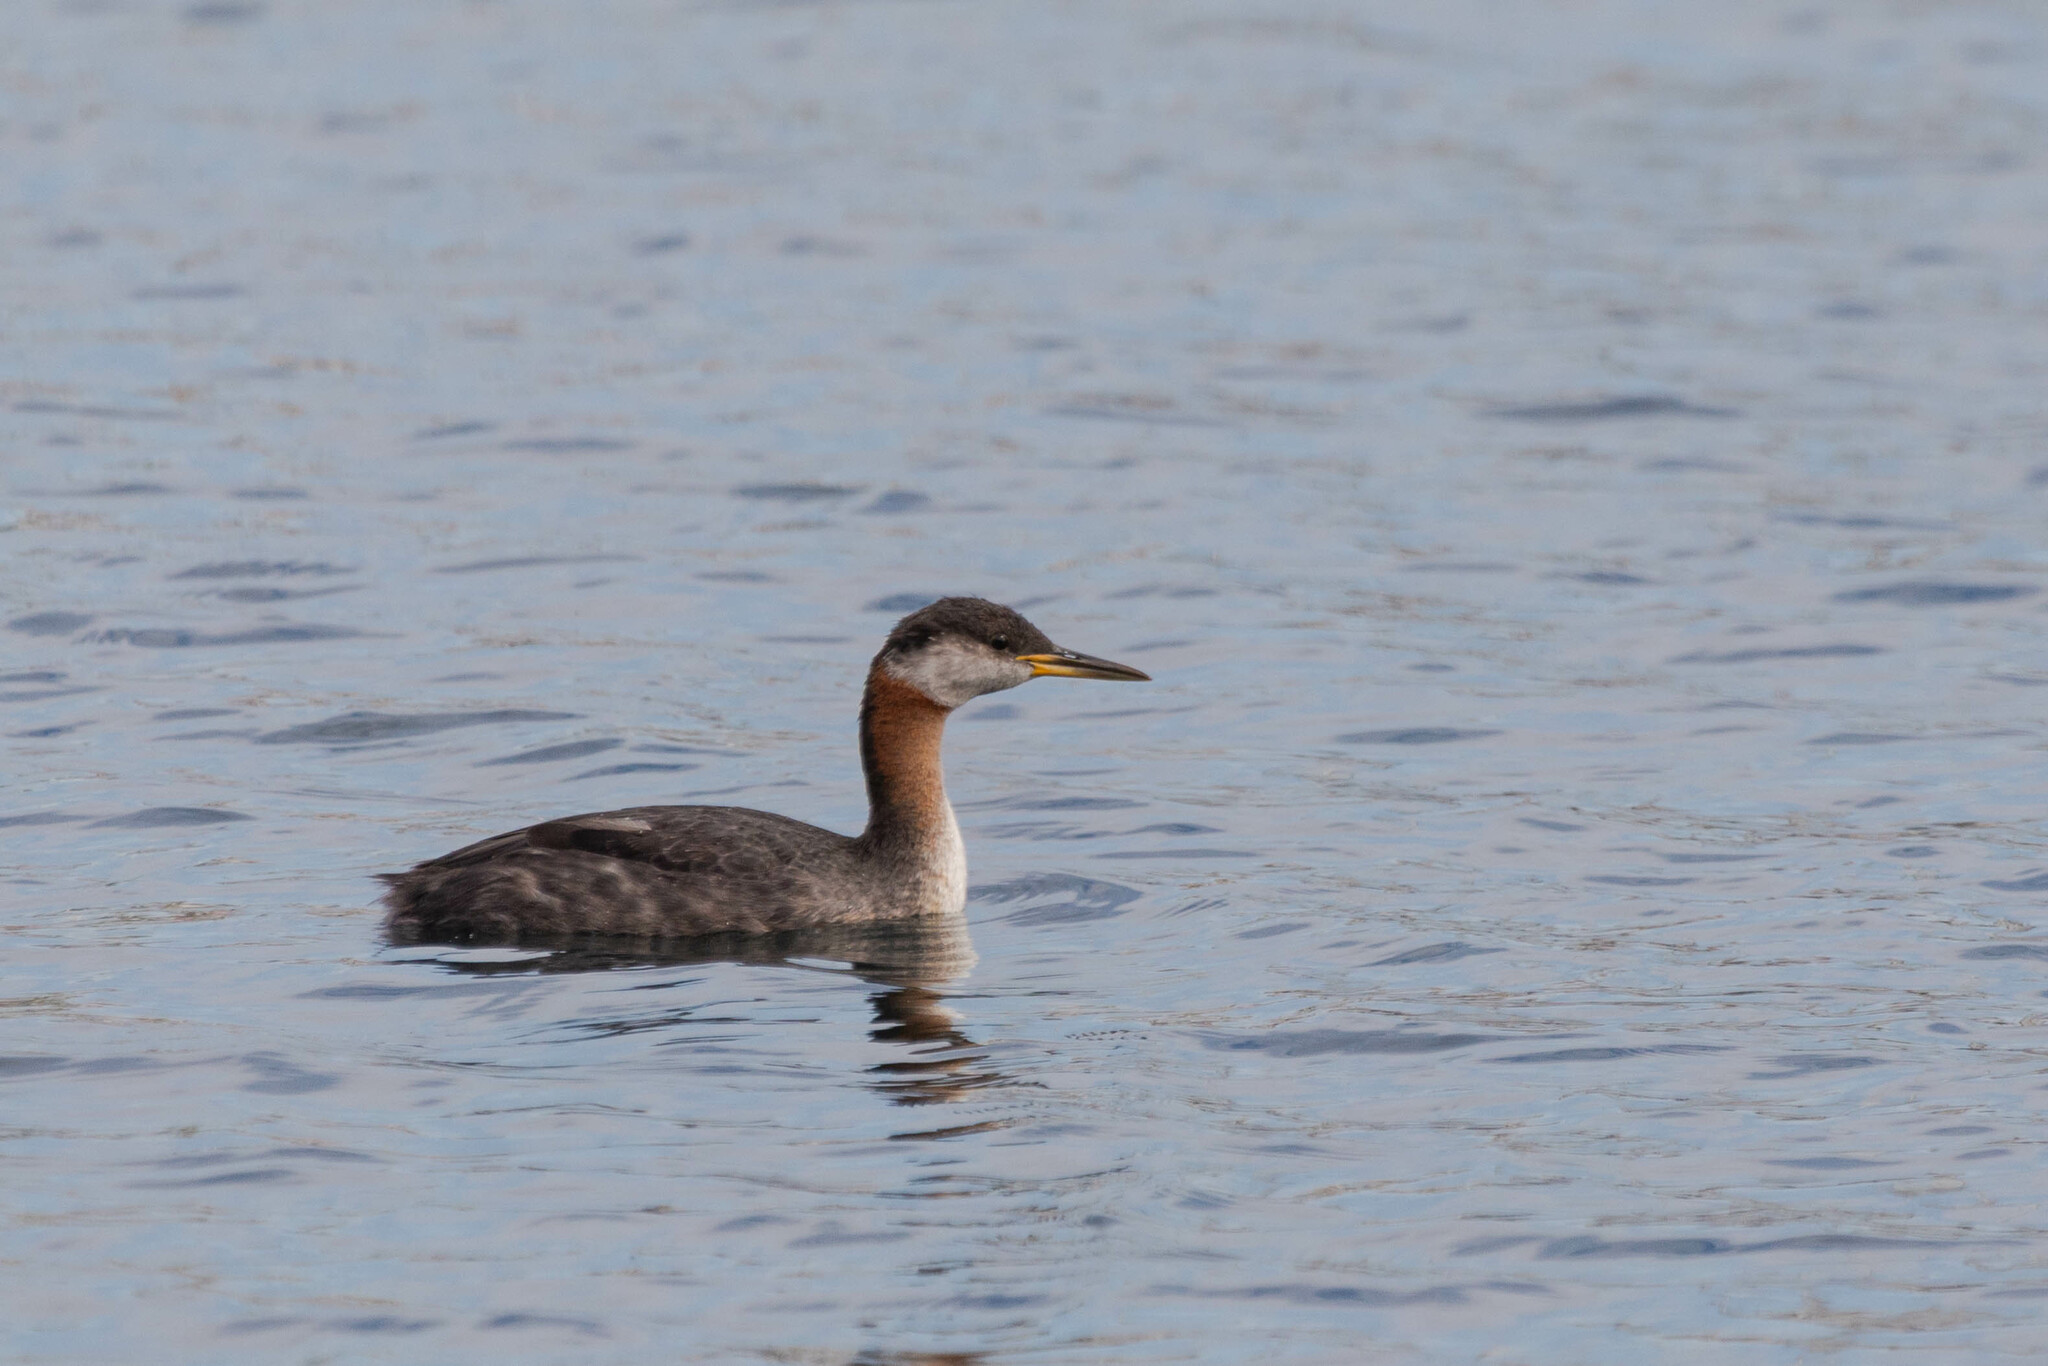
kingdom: Animalia
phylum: Chordata
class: Aves
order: Podicipediformes
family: Podicipedidae
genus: Podiceps
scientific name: Podiceps grisegena
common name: Red-necked grebe
